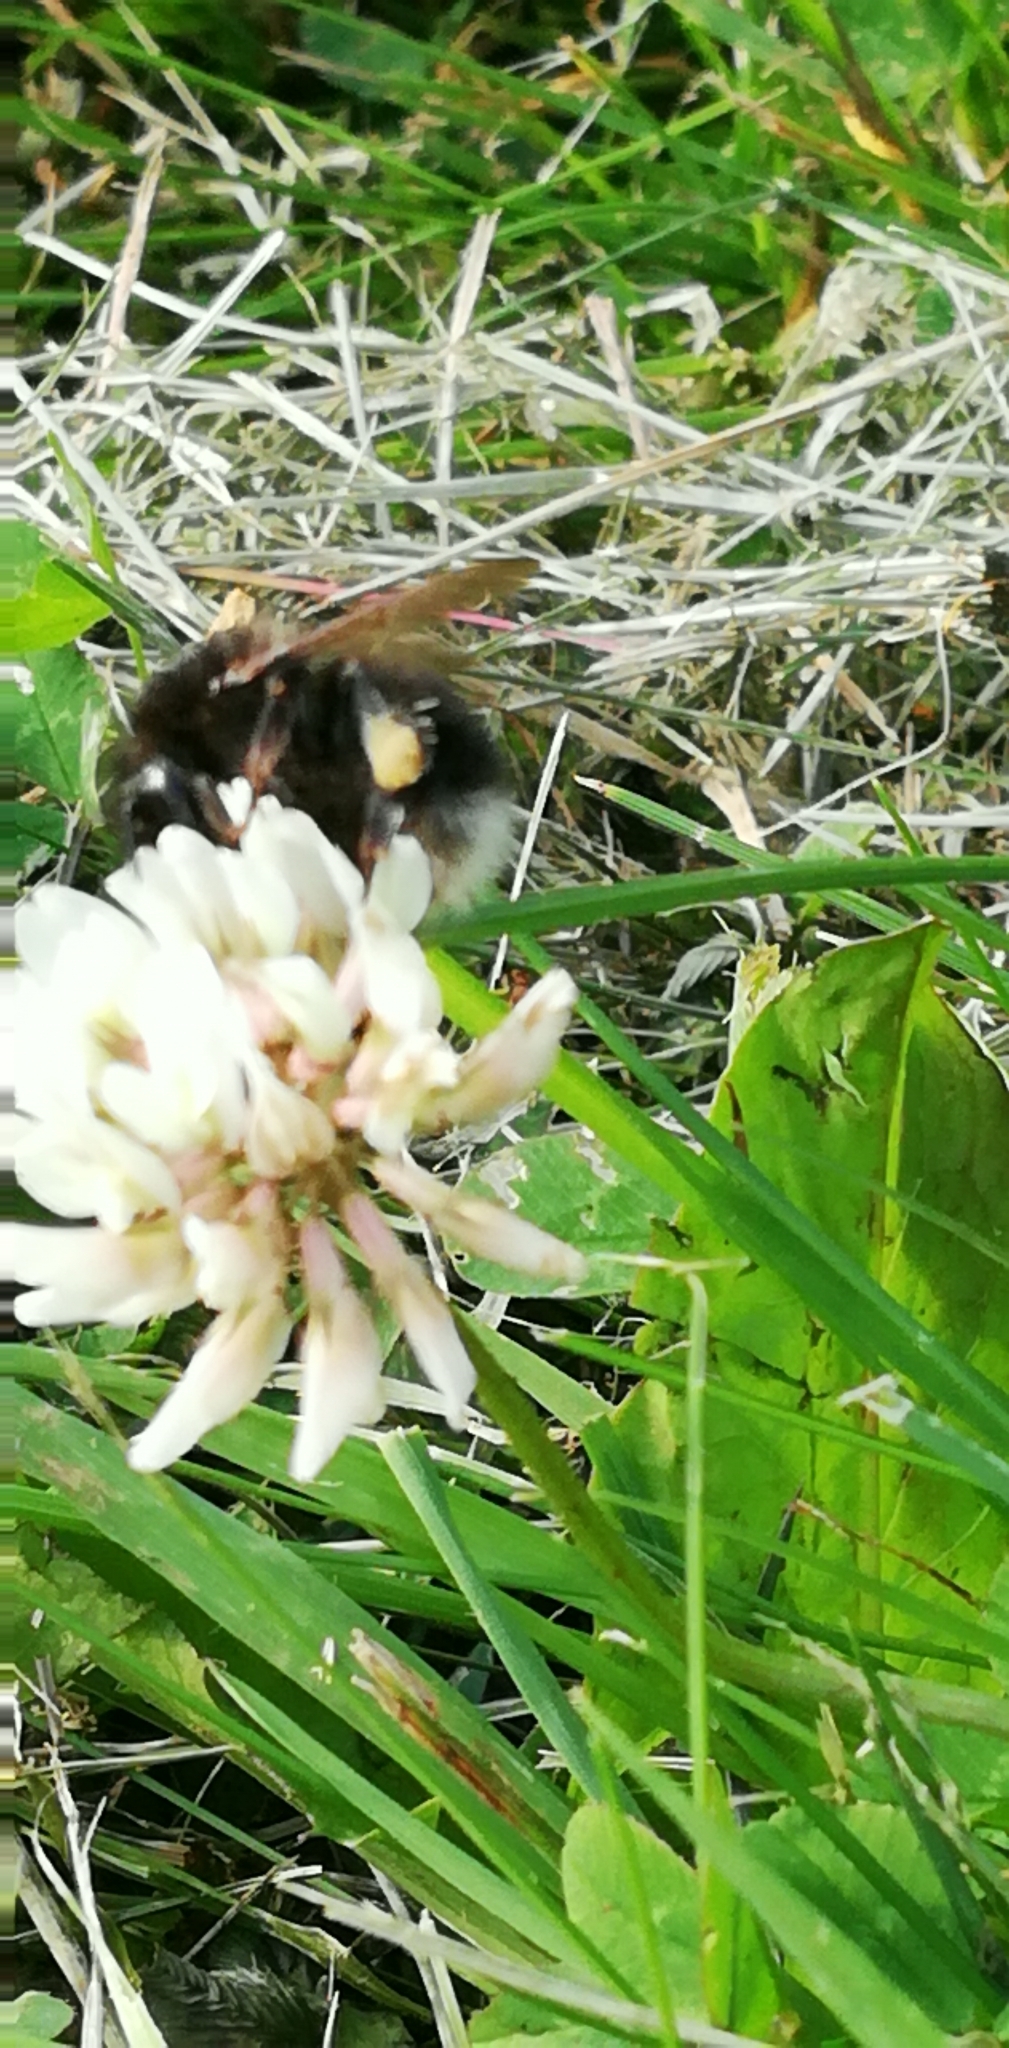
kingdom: Animalia
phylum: Arthropoda
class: Insecta
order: Hymenoptera
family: Apidae
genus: Bombus
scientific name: Bombus hypnorum
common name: New garden bumblebee
